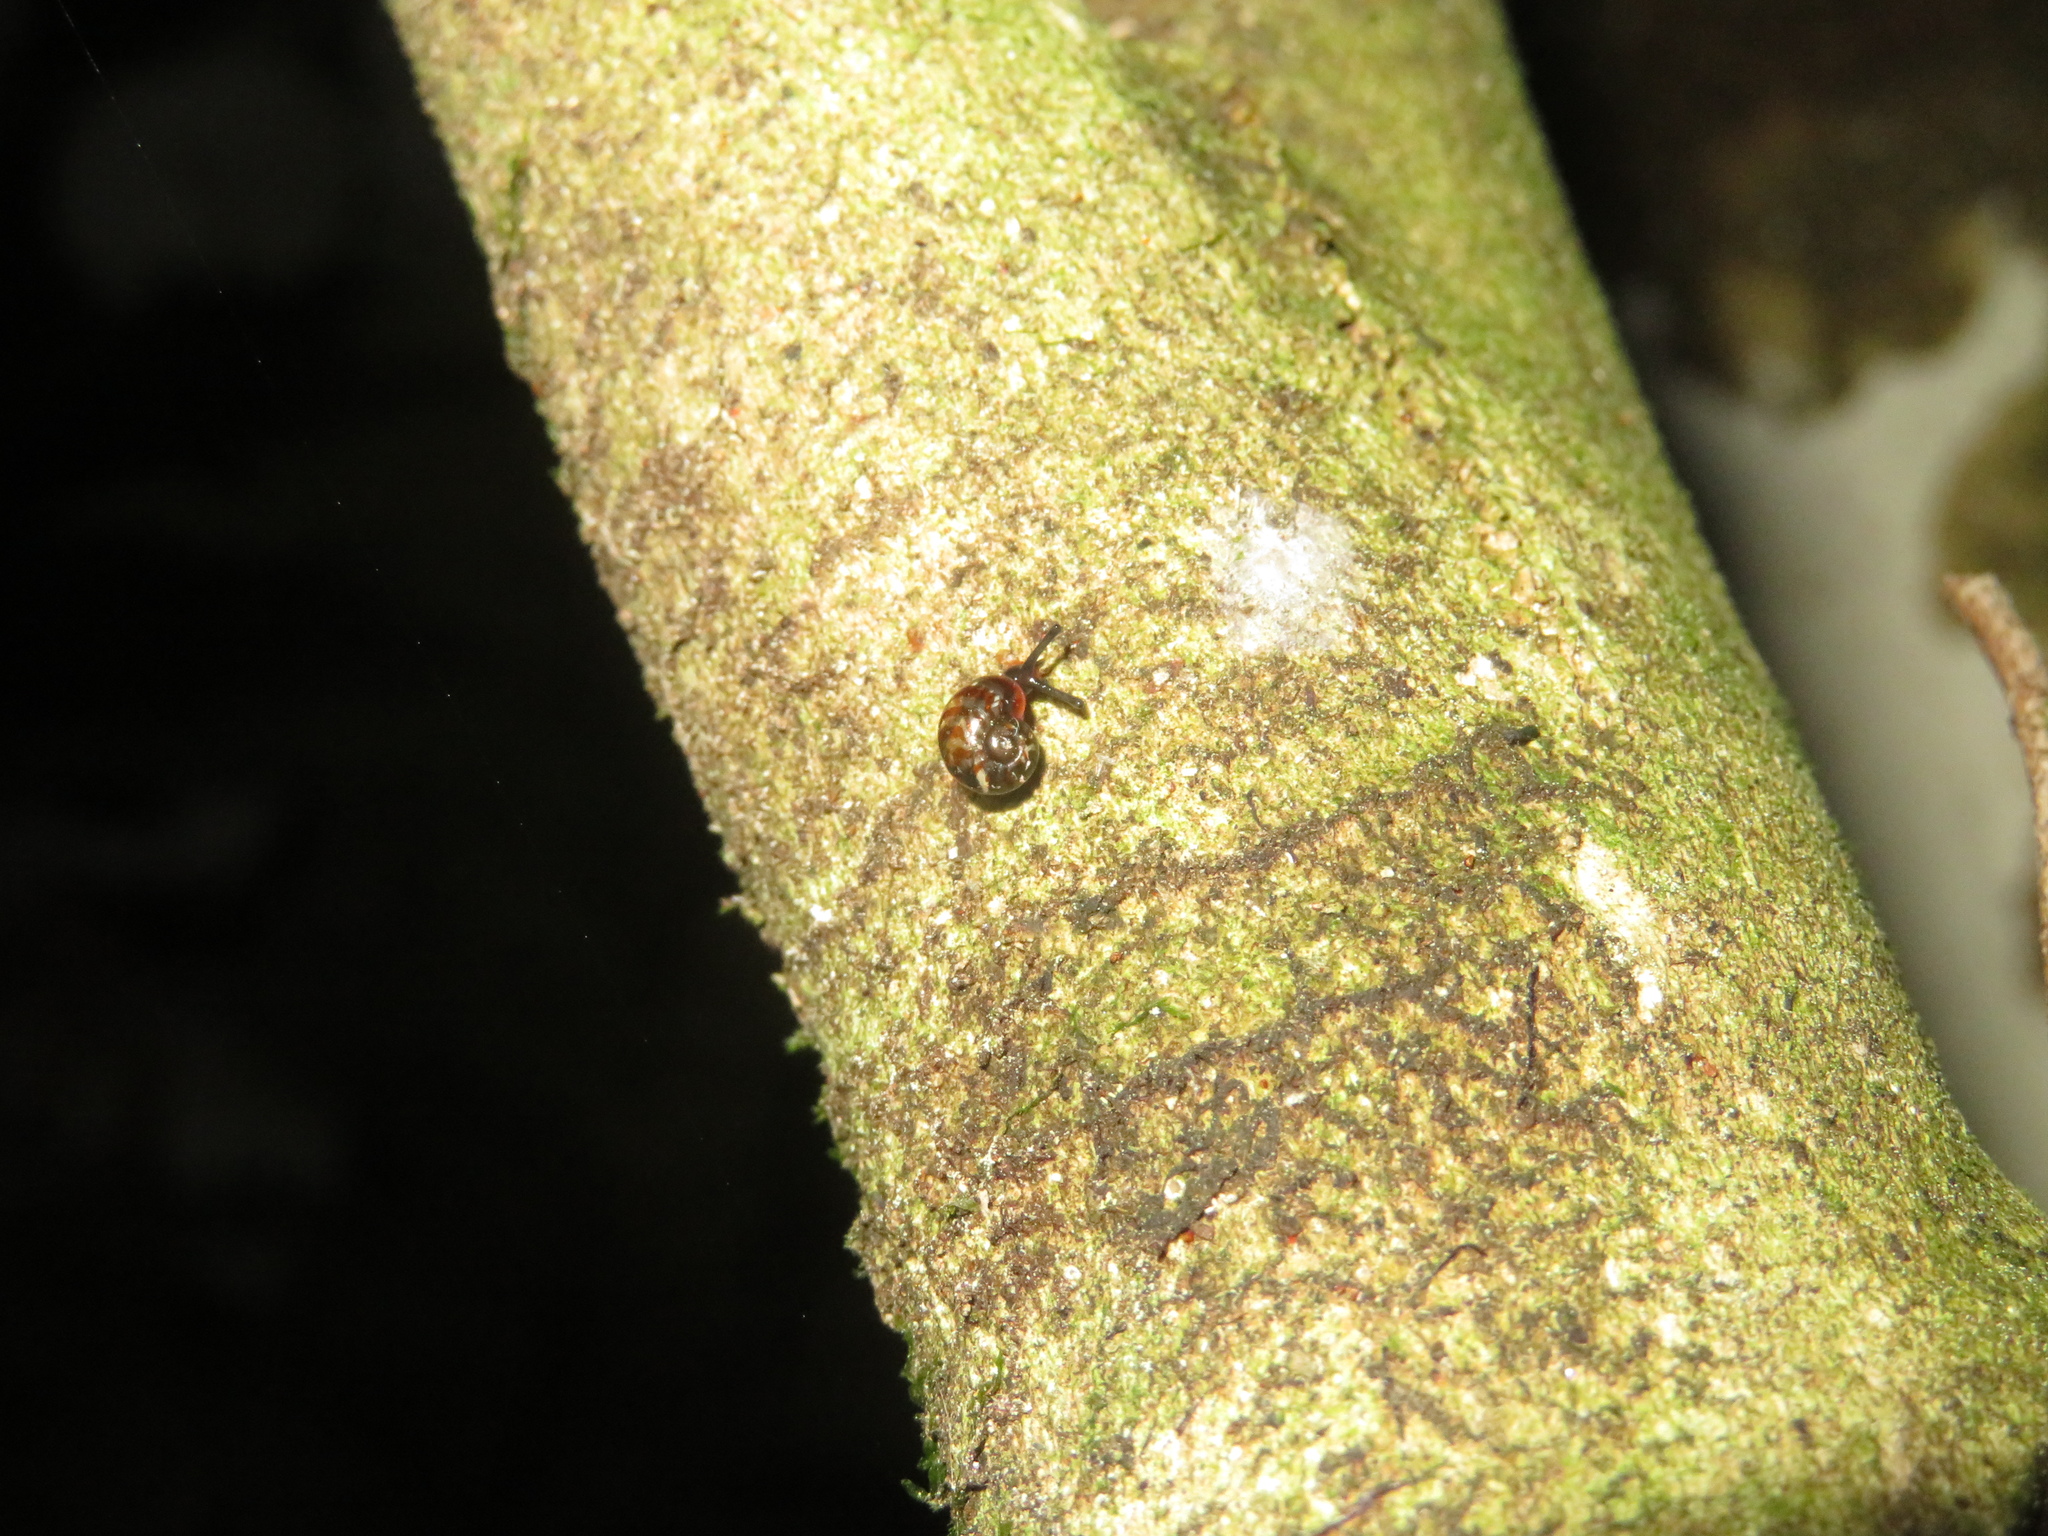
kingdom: Animalia
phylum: Mollusca
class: Gastropoda
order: Stylommatophora
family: Charopidae
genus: Flammulina
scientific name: Flammulina zebra
